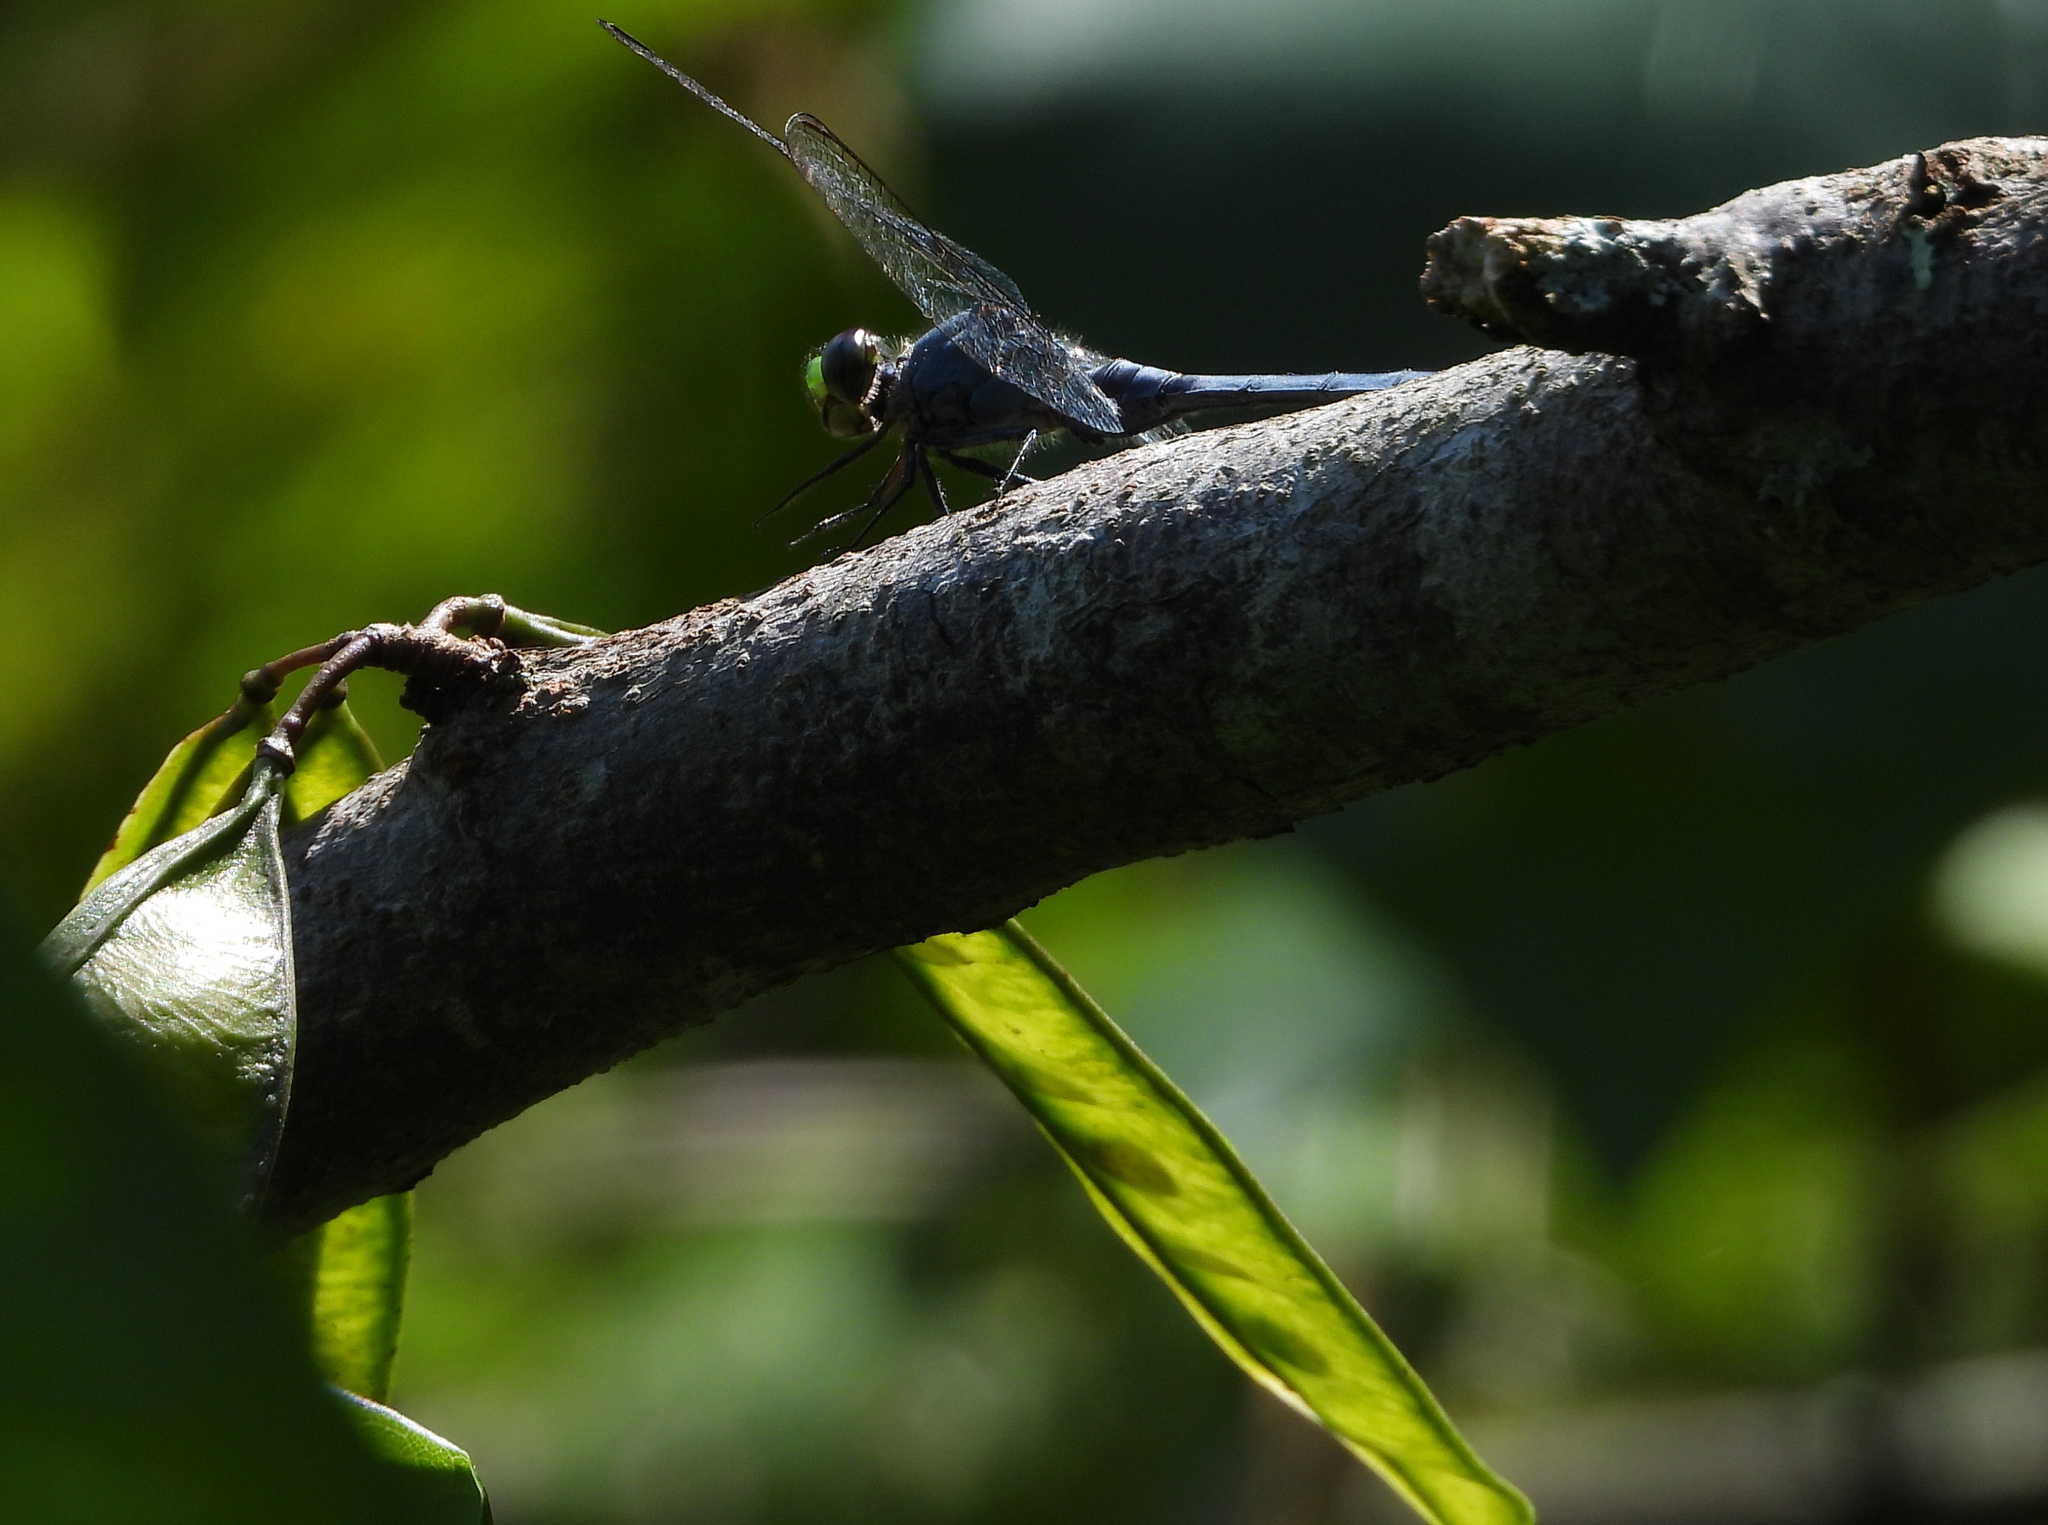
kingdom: Animalia
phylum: Arthropoda
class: Insecta
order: Odonata
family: Libellulidae
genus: Erythemis
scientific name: Erythemis simplicicollis
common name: Eastern pondhawk
